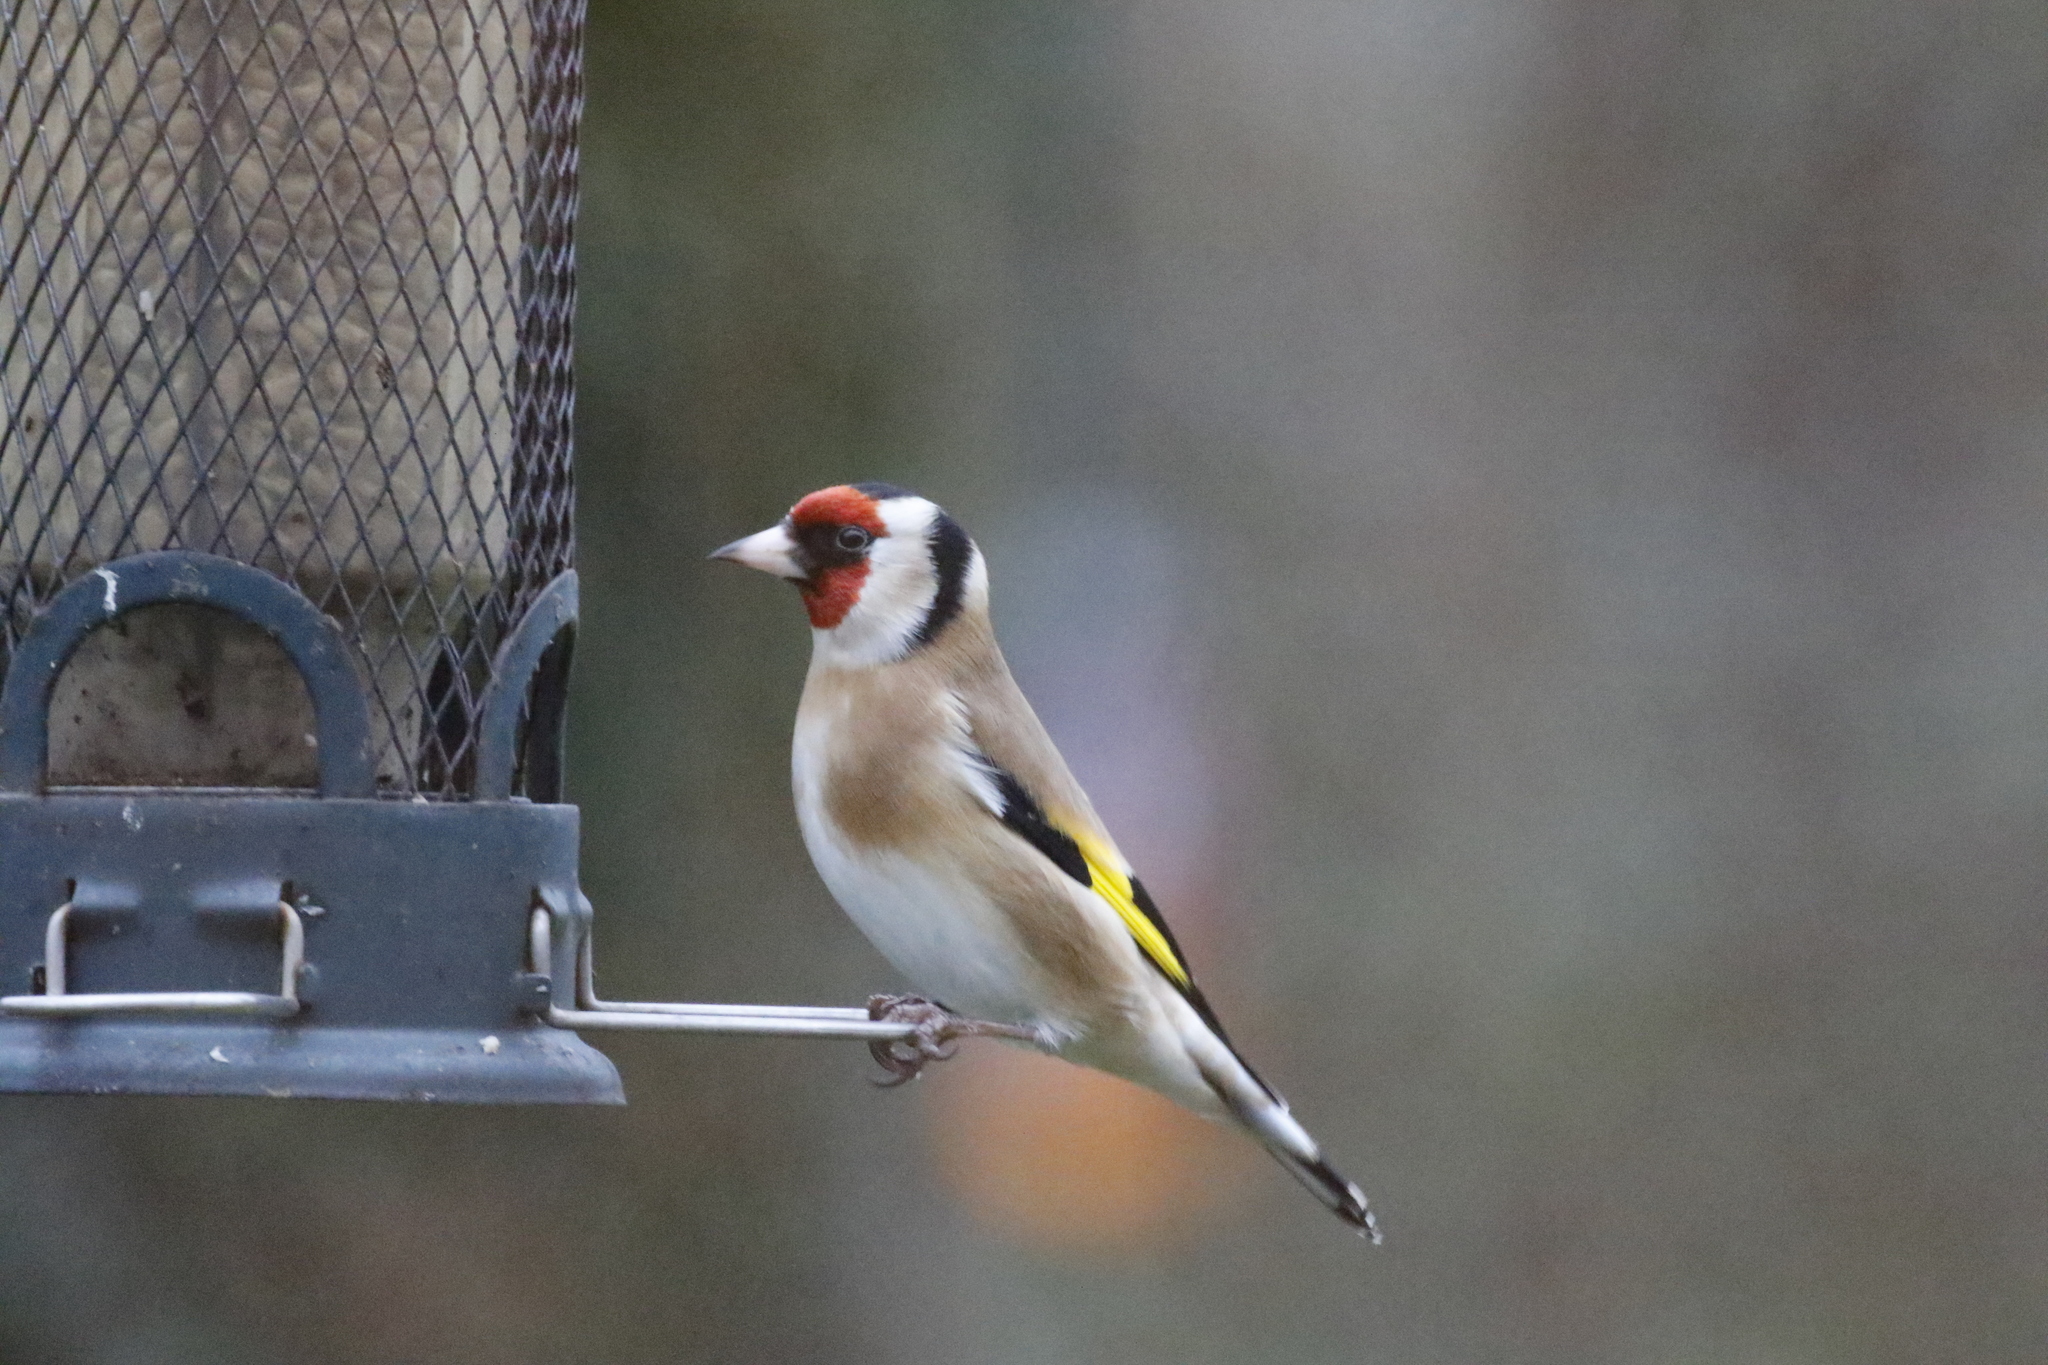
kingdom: Animalia
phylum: Chordata
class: Aves
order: Passeriformes
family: Fringillidae
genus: Carduelis
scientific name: Carduelis carduelis
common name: European goldfinch
